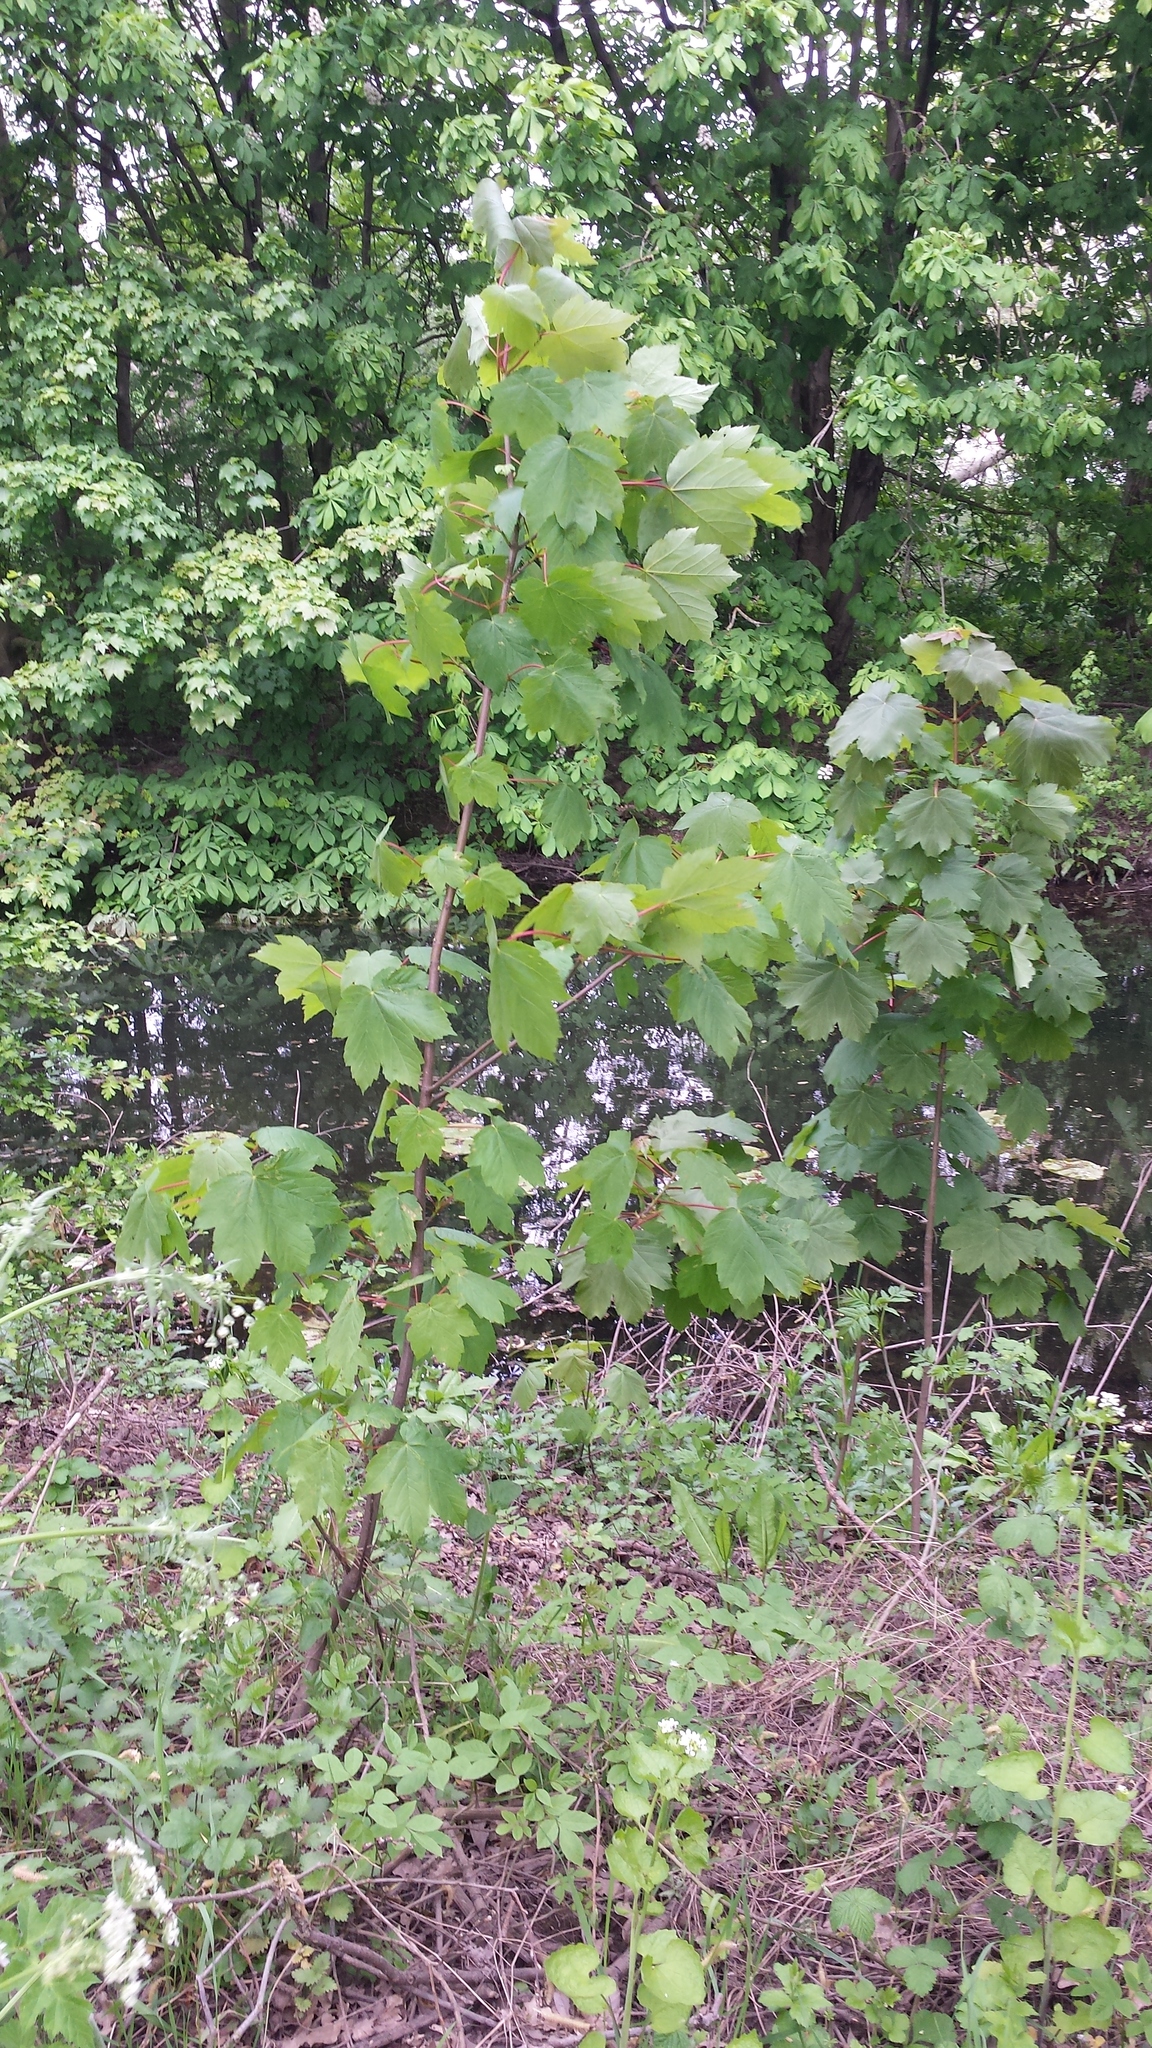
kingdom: Plantae
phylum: Tracheophyta
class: Magnoliopsida
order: Sapindales
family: Sapindaceae
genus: Acer
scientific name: Acer pseudoplatanus
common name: Sycamore
